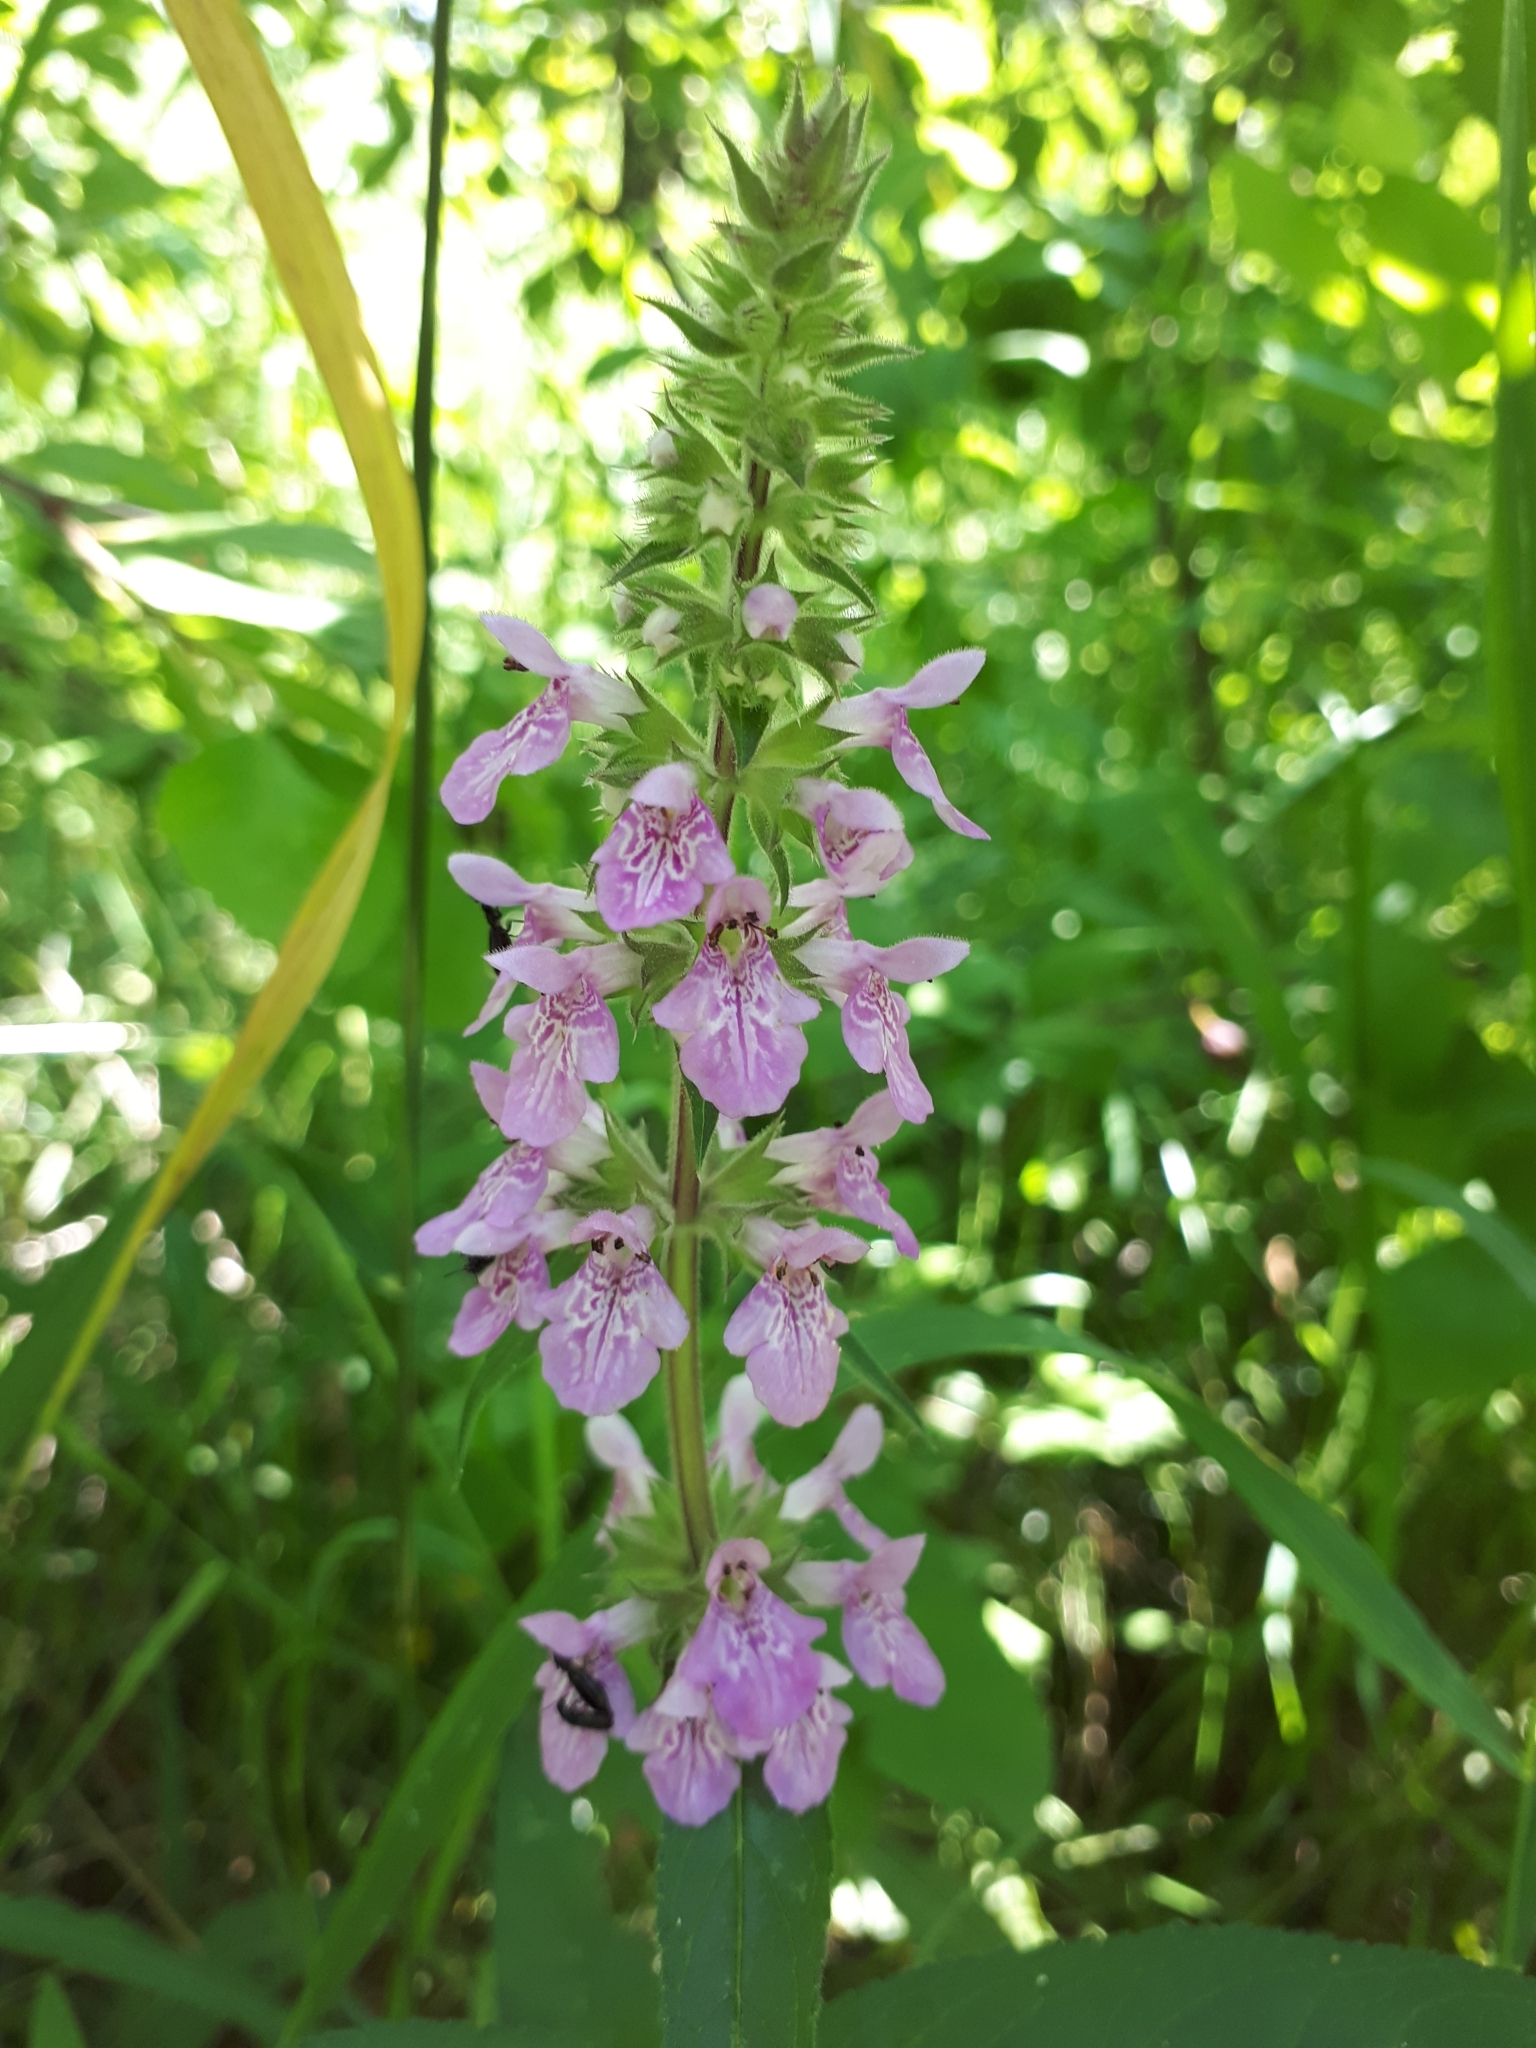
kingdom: Plantae
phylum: Tracheophyta
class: Magnoliopsida
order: Lamiales
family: Lamiaceae
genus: Stachys
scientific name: Stachys palustris
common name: Marsh woundwort
